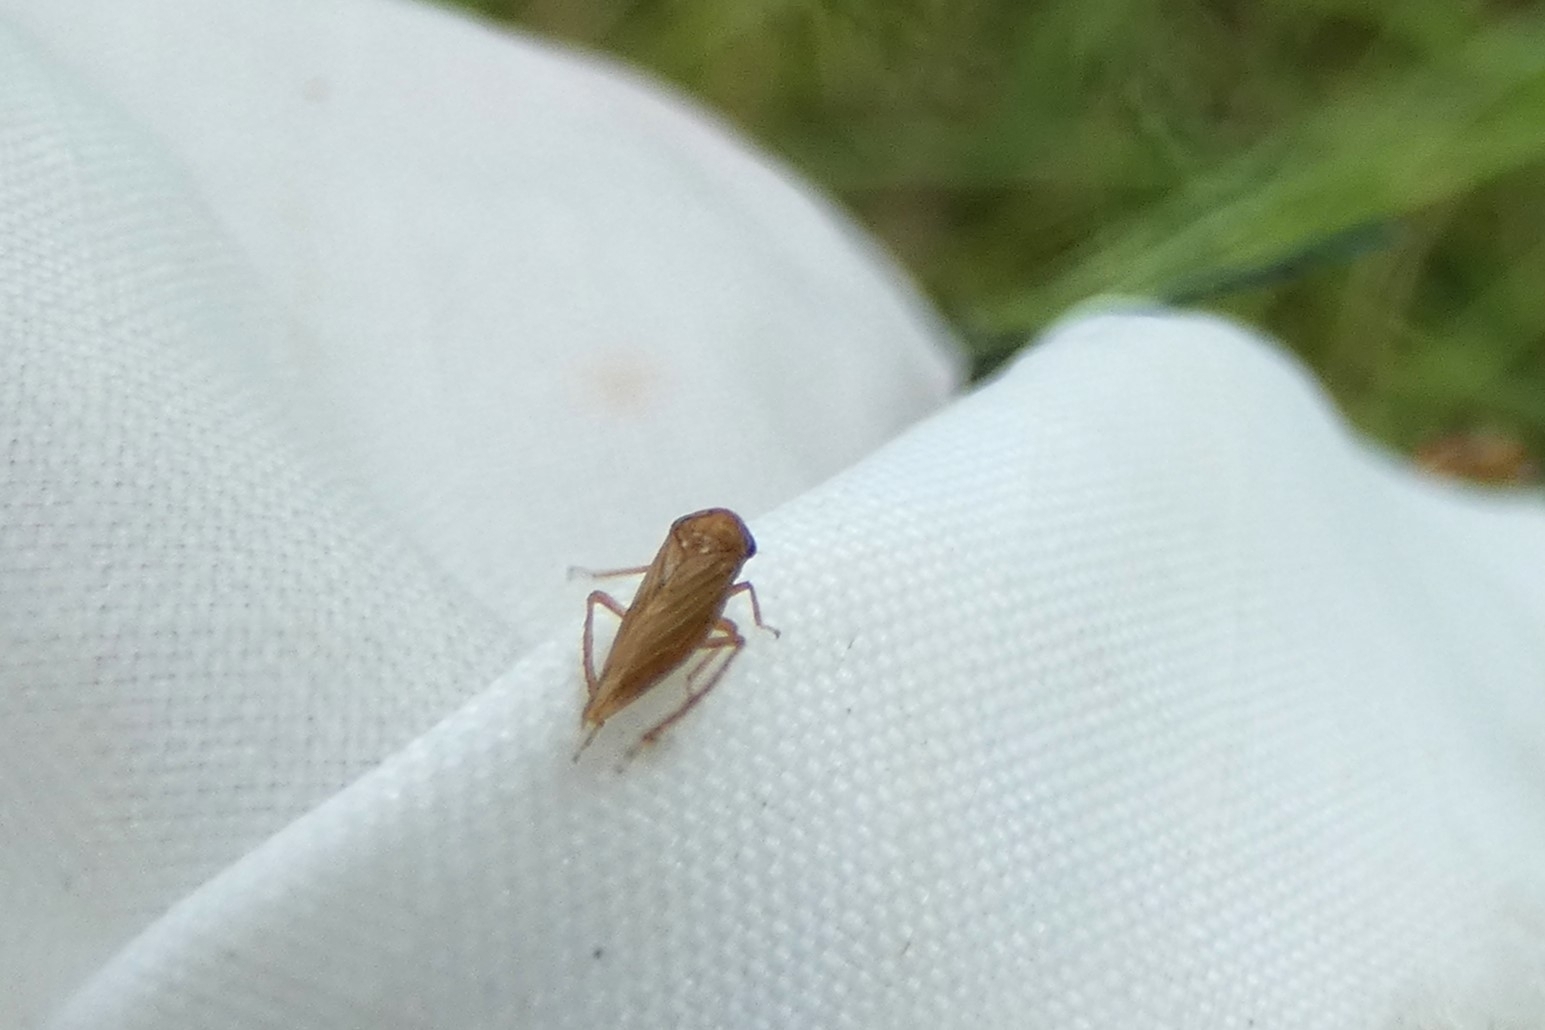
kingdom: Animalia
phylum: Arthropoda
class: Insecta
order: Hemiptera
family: Cicadellidae
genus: Agallia
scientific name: Agallia constricta
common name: The constricted leafhopper
